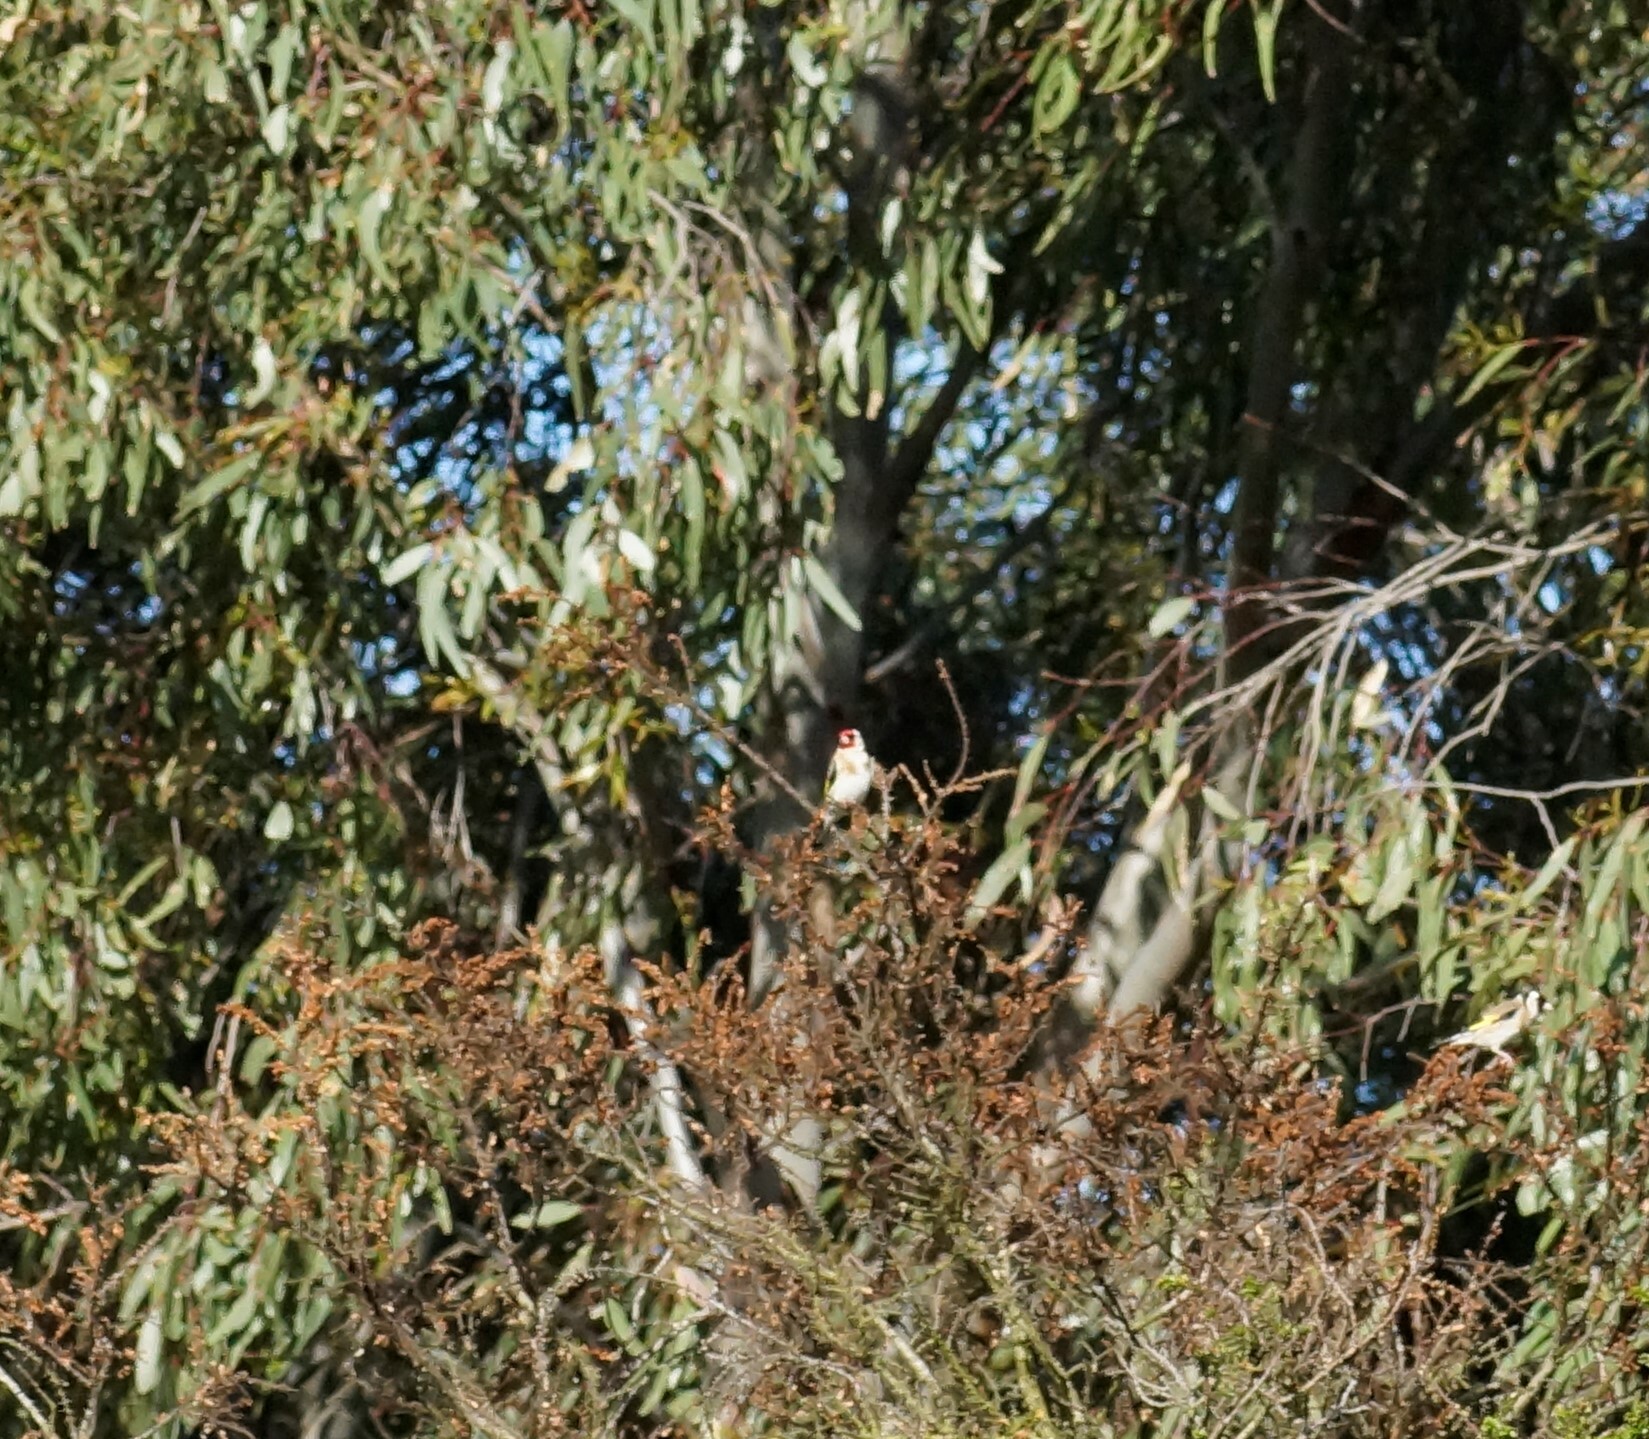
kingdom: Animalia
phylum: Chordata
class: Aves
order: Passeriformes
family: Fringillidae
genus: Carduelis
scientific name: Carduelis carduelis
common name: European goldfinch
